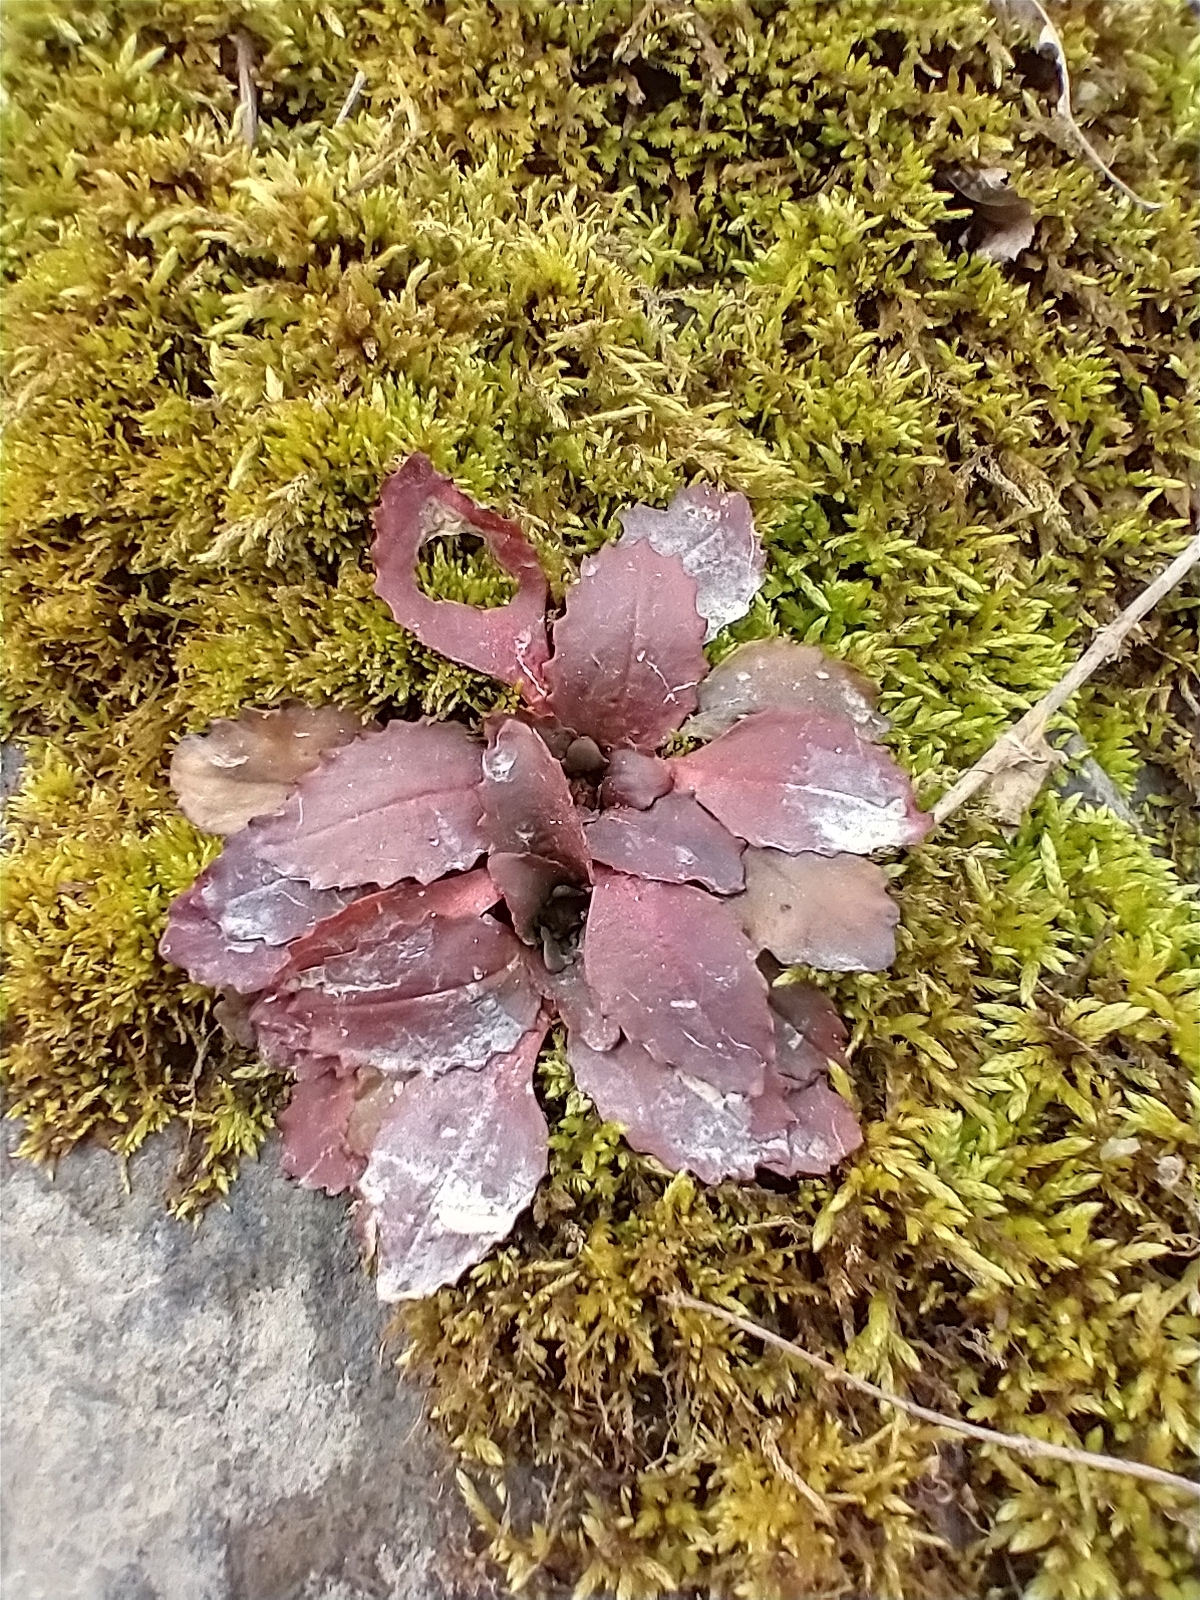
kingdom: Plantae
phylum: Tracheophyta
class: Magnoliopsida
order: Saxifragales
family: Saxifragaceae
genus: Micranthes
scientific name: Micranthes virginiensis
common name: Early saxifrage
